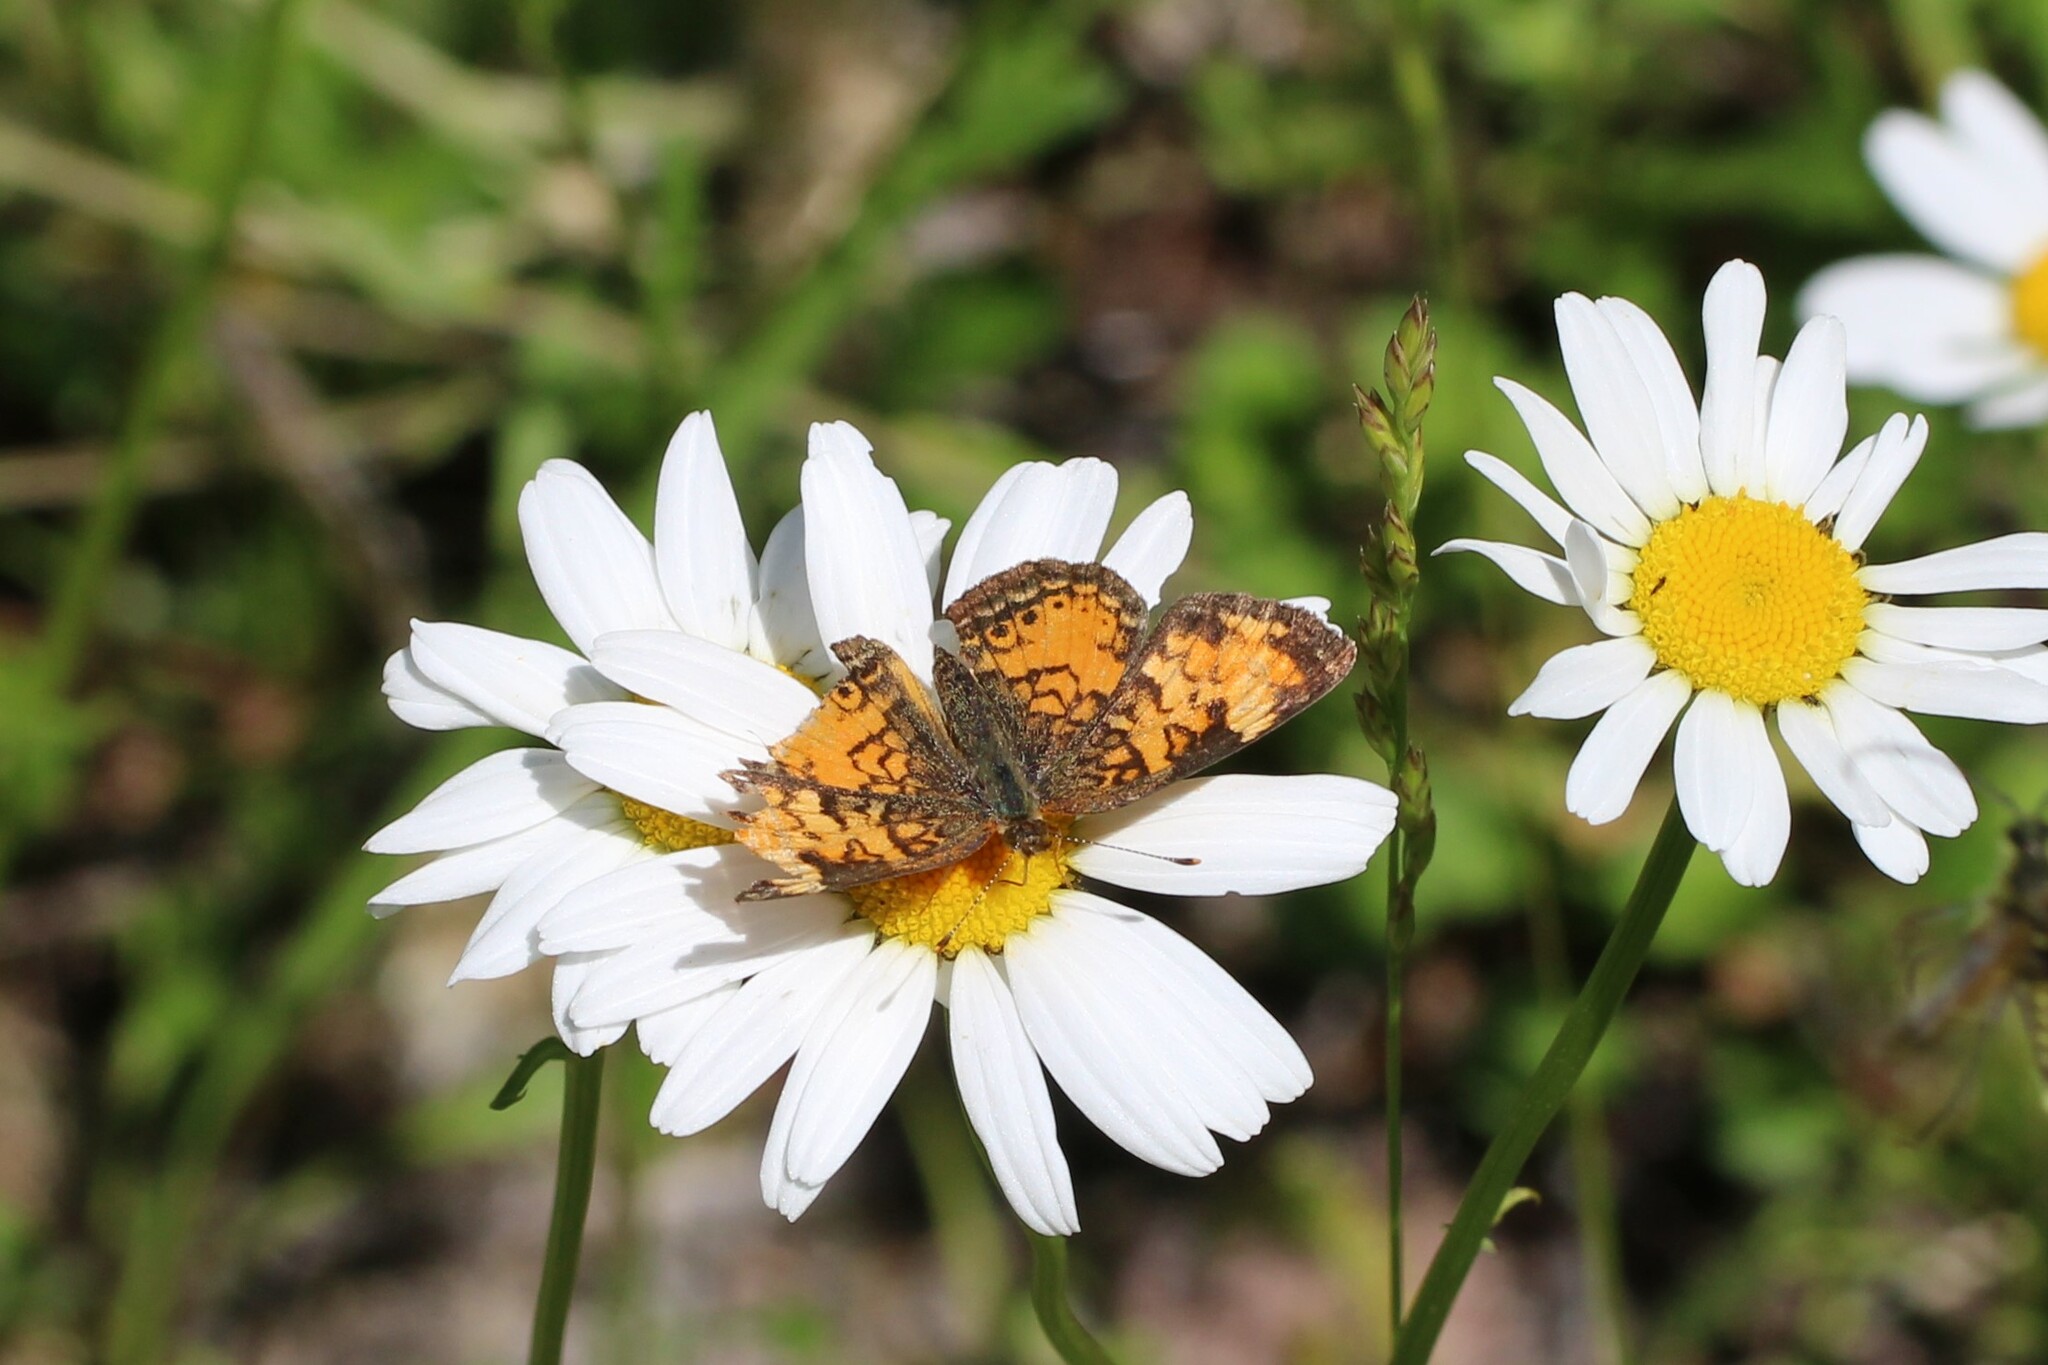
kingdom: Animalia
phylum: Arthropoda
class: Insecta
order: Lepidoptera
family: Nymphalidae
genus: Phyciodes
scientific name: Phyciodes tharos
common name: Pearl crescent
